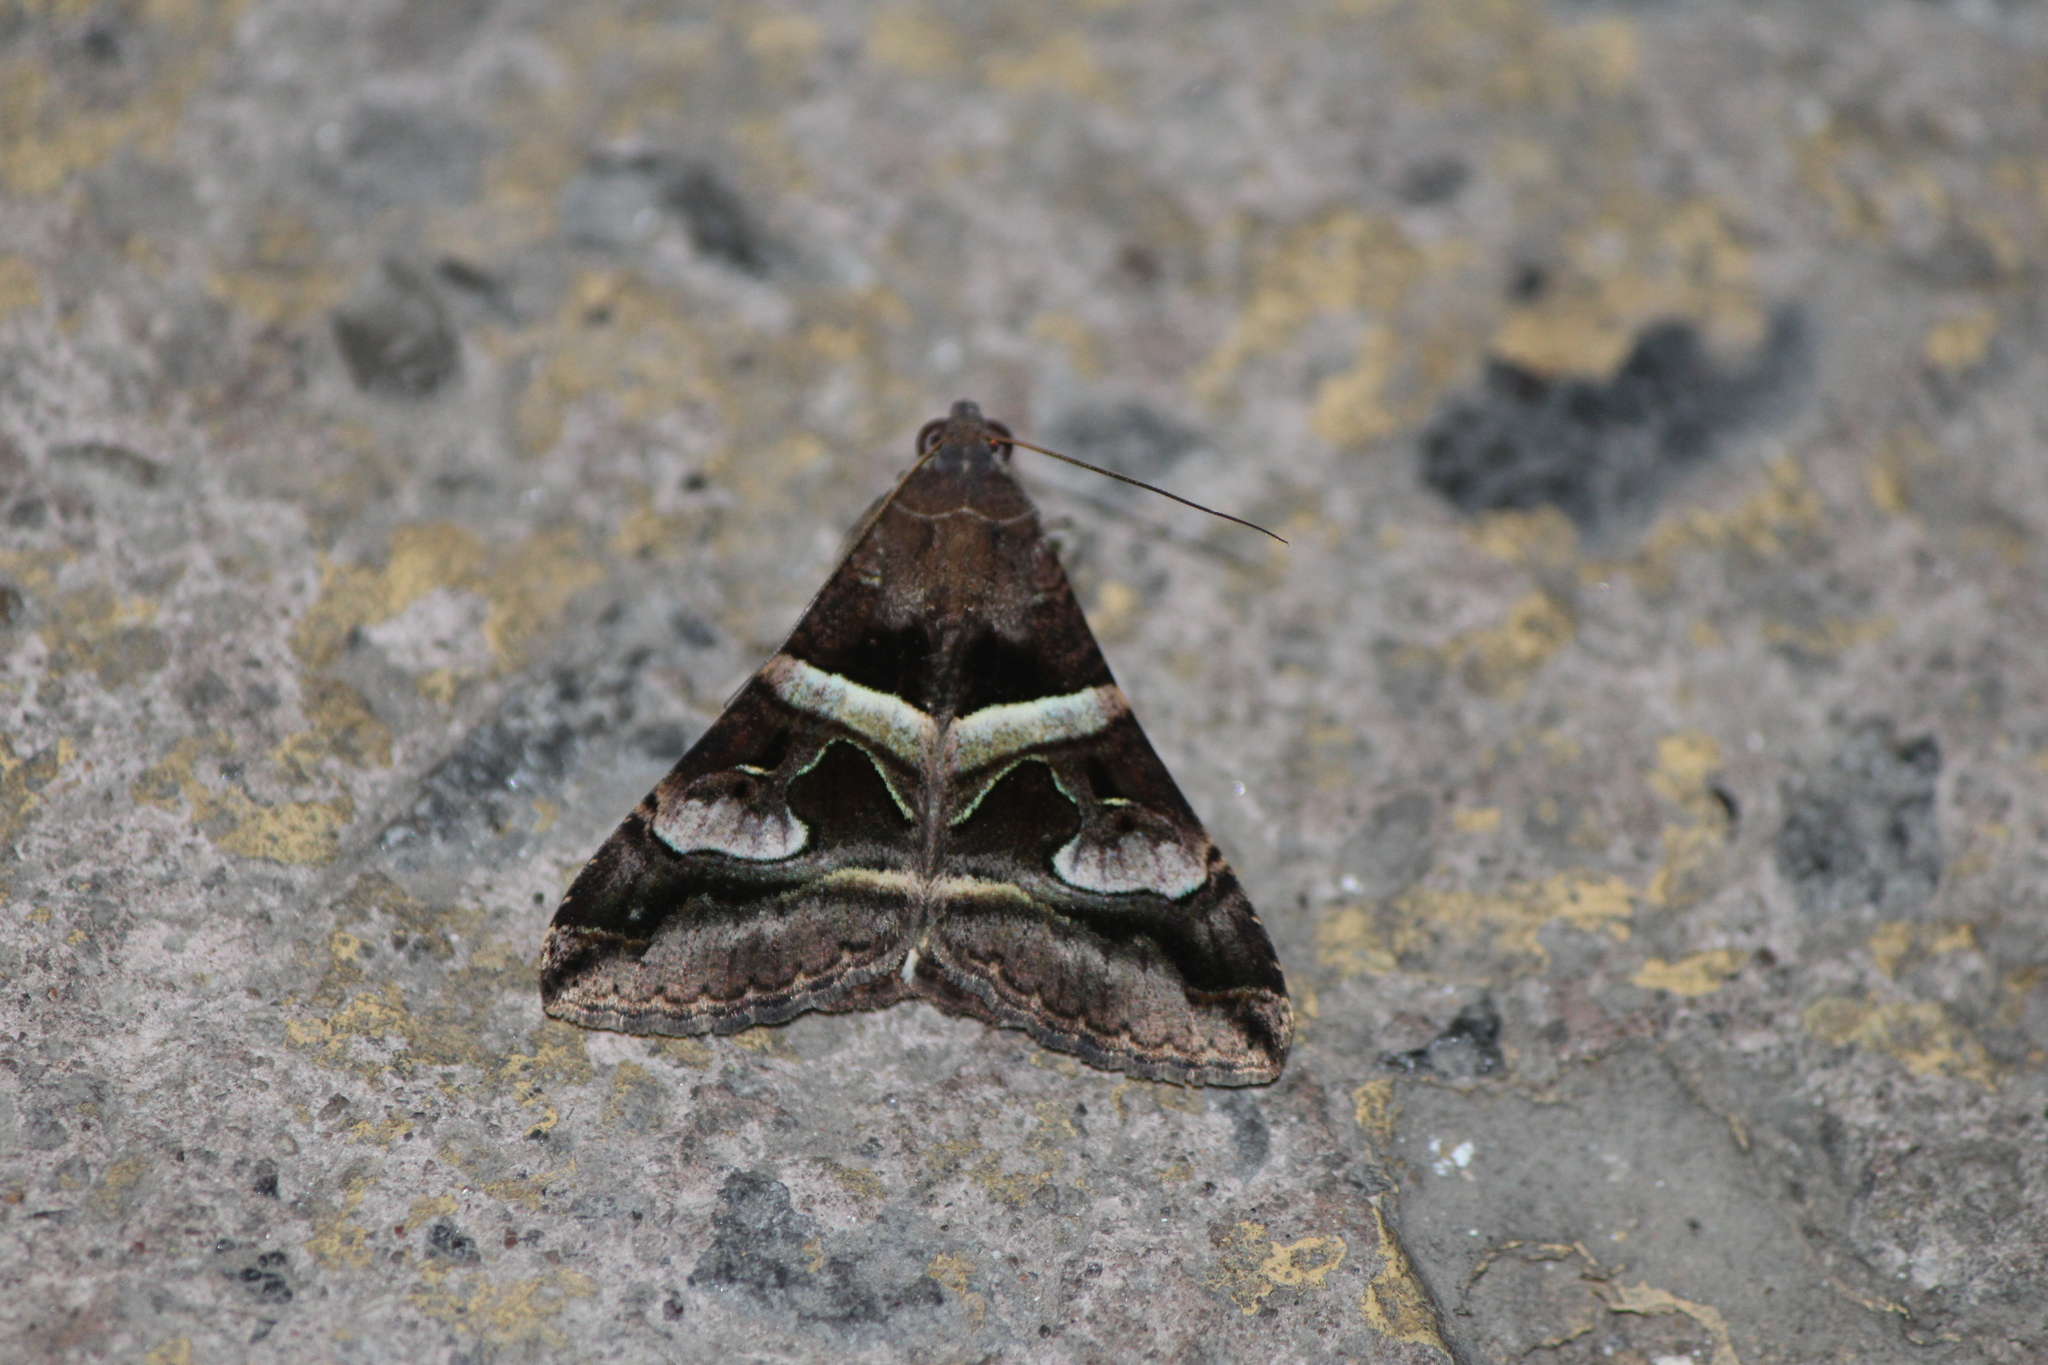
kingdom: Animalia
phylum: Arthropoda
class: Insecta
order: Lepidoptera
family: Erebidae
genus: Melipotis
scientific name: Melipotis perpendicularis
